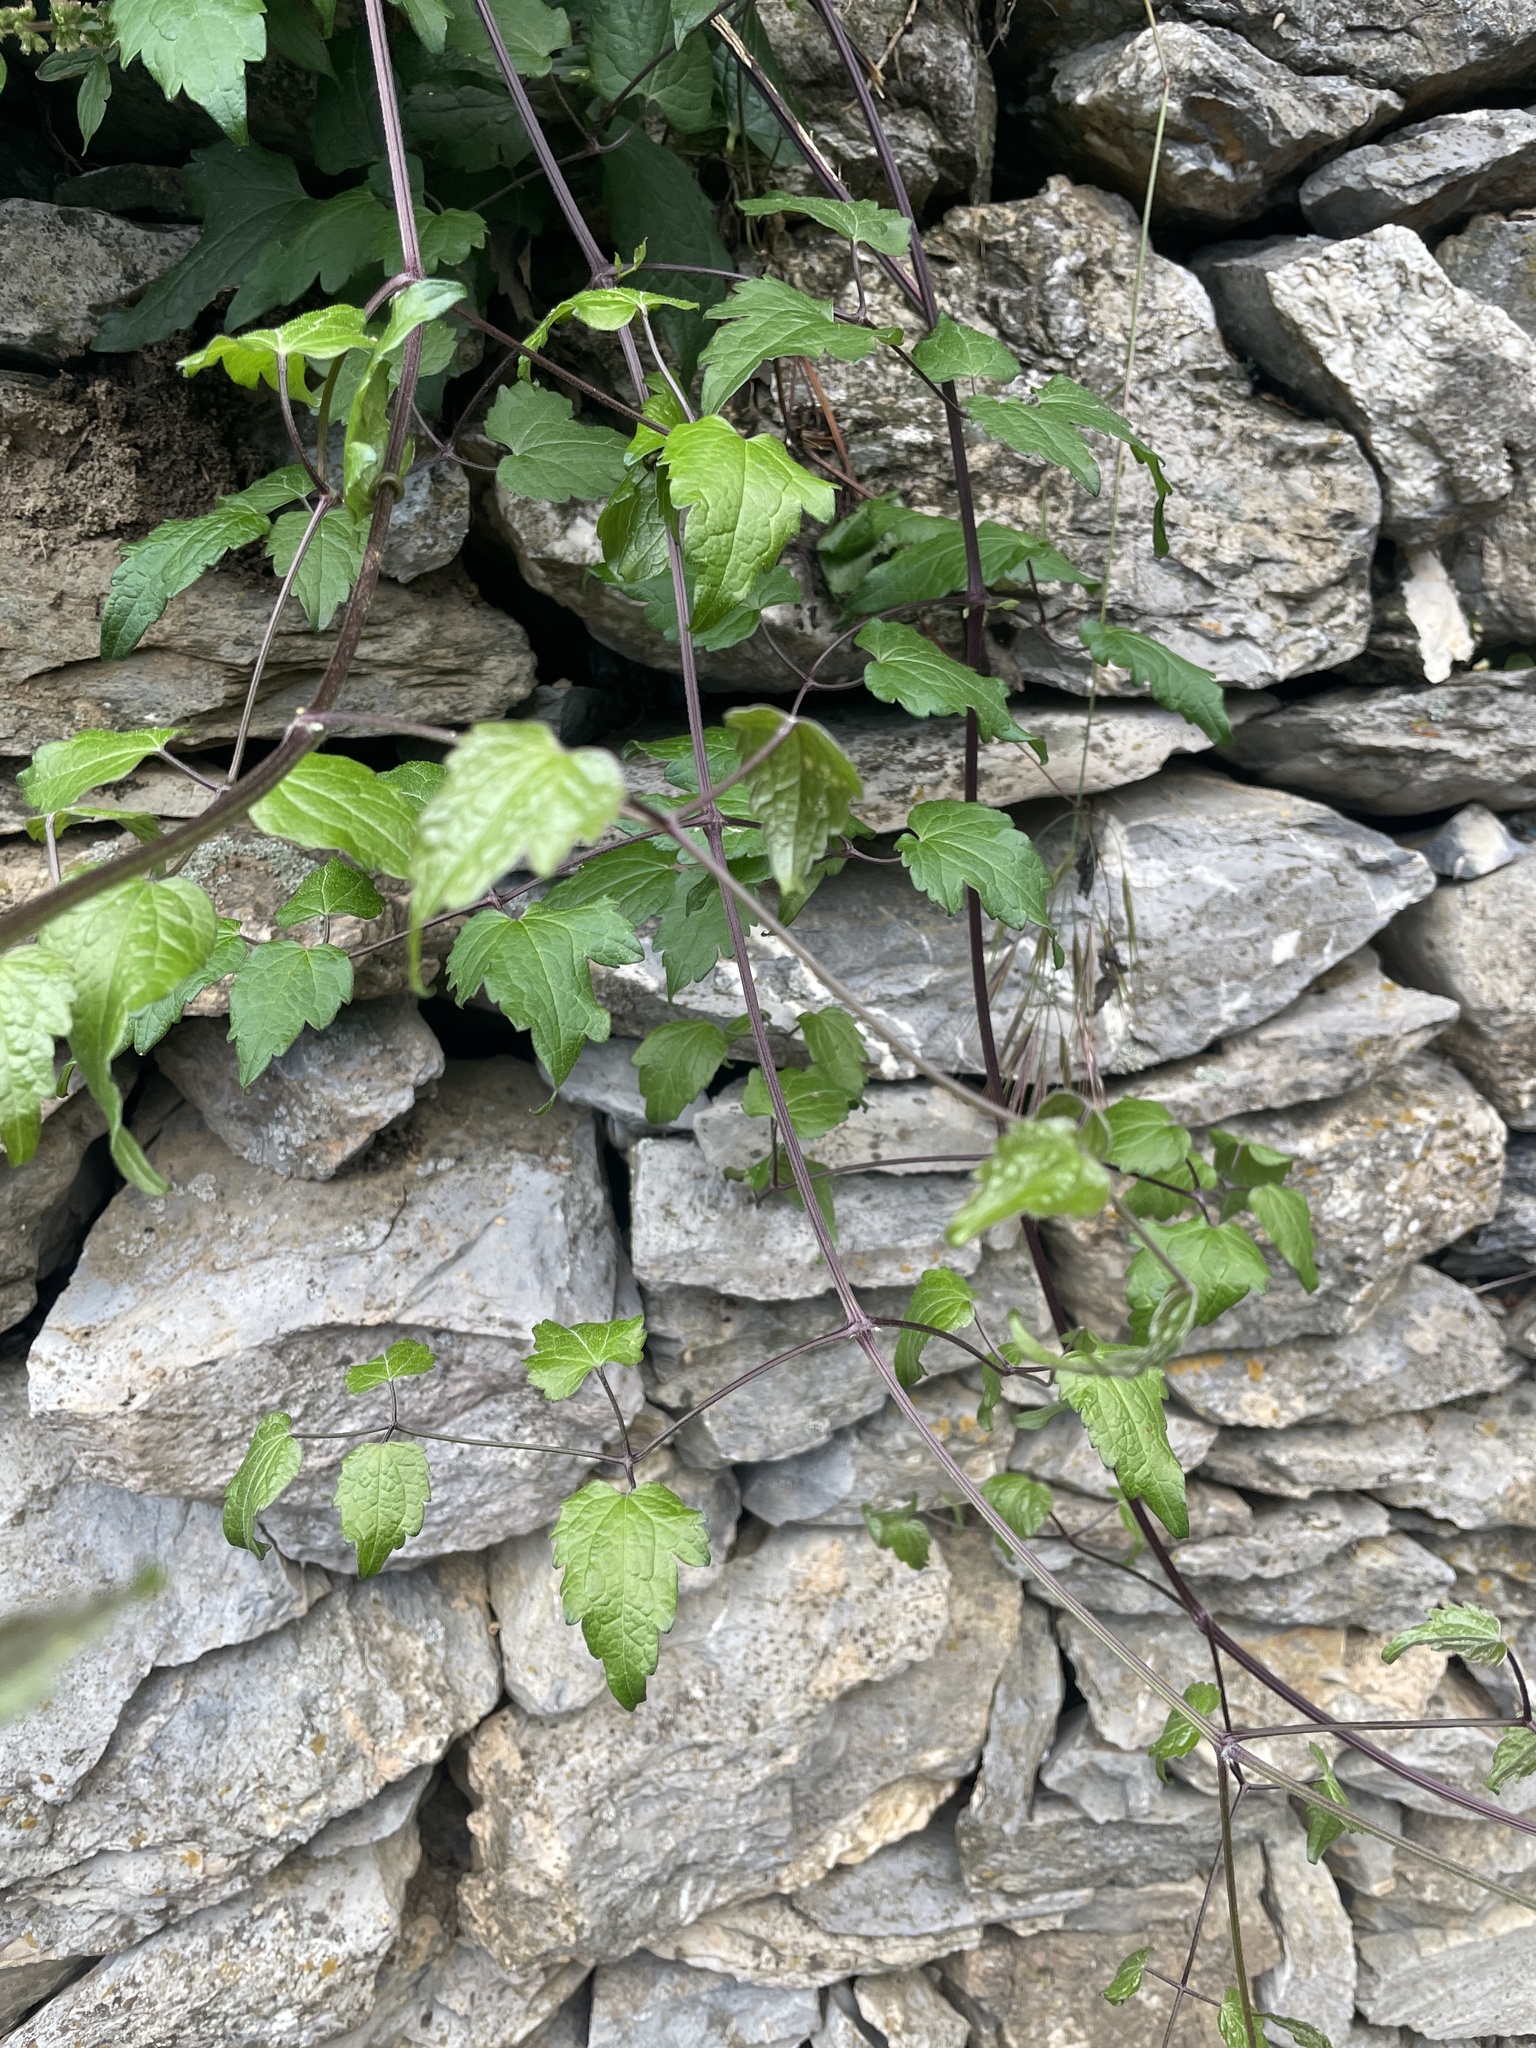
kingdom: Plantae
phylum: Tracheophyta
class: Magnoliopsida
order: Ranunculales
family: Ranunculaceae
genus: Clematis
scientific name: Clematis vitalba
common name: Evergreen clematis
